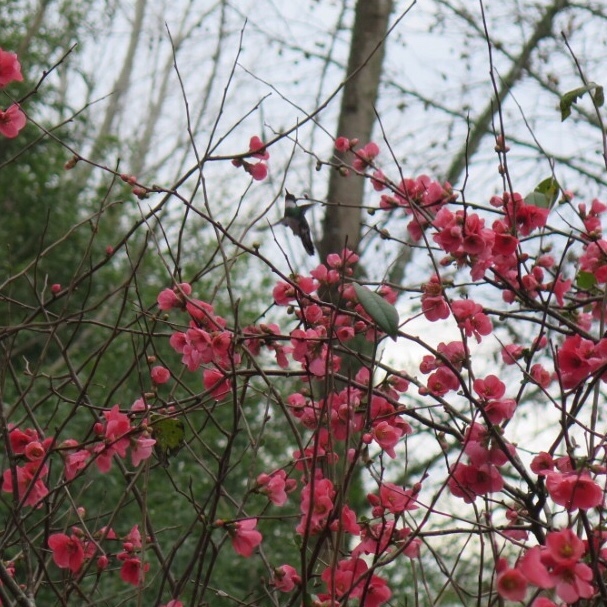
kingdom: Animalia
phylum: Chordata
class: Aves
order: Apodiformes
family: Trochilidae
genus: Leucochloris
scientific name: Leucochloris albicollis
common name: White-throated hummingbird
